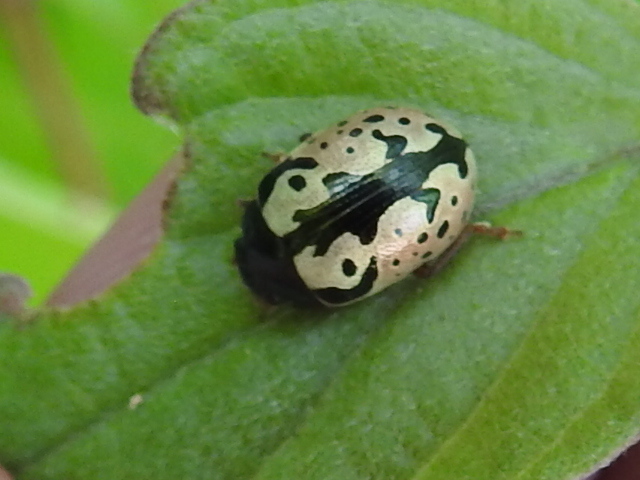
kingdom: Animalia
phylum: Arthropoda
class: Insecta
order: Coleoptera
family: Chrysomelidae
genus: Calligrapha
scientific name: Calligrapha scalaris
